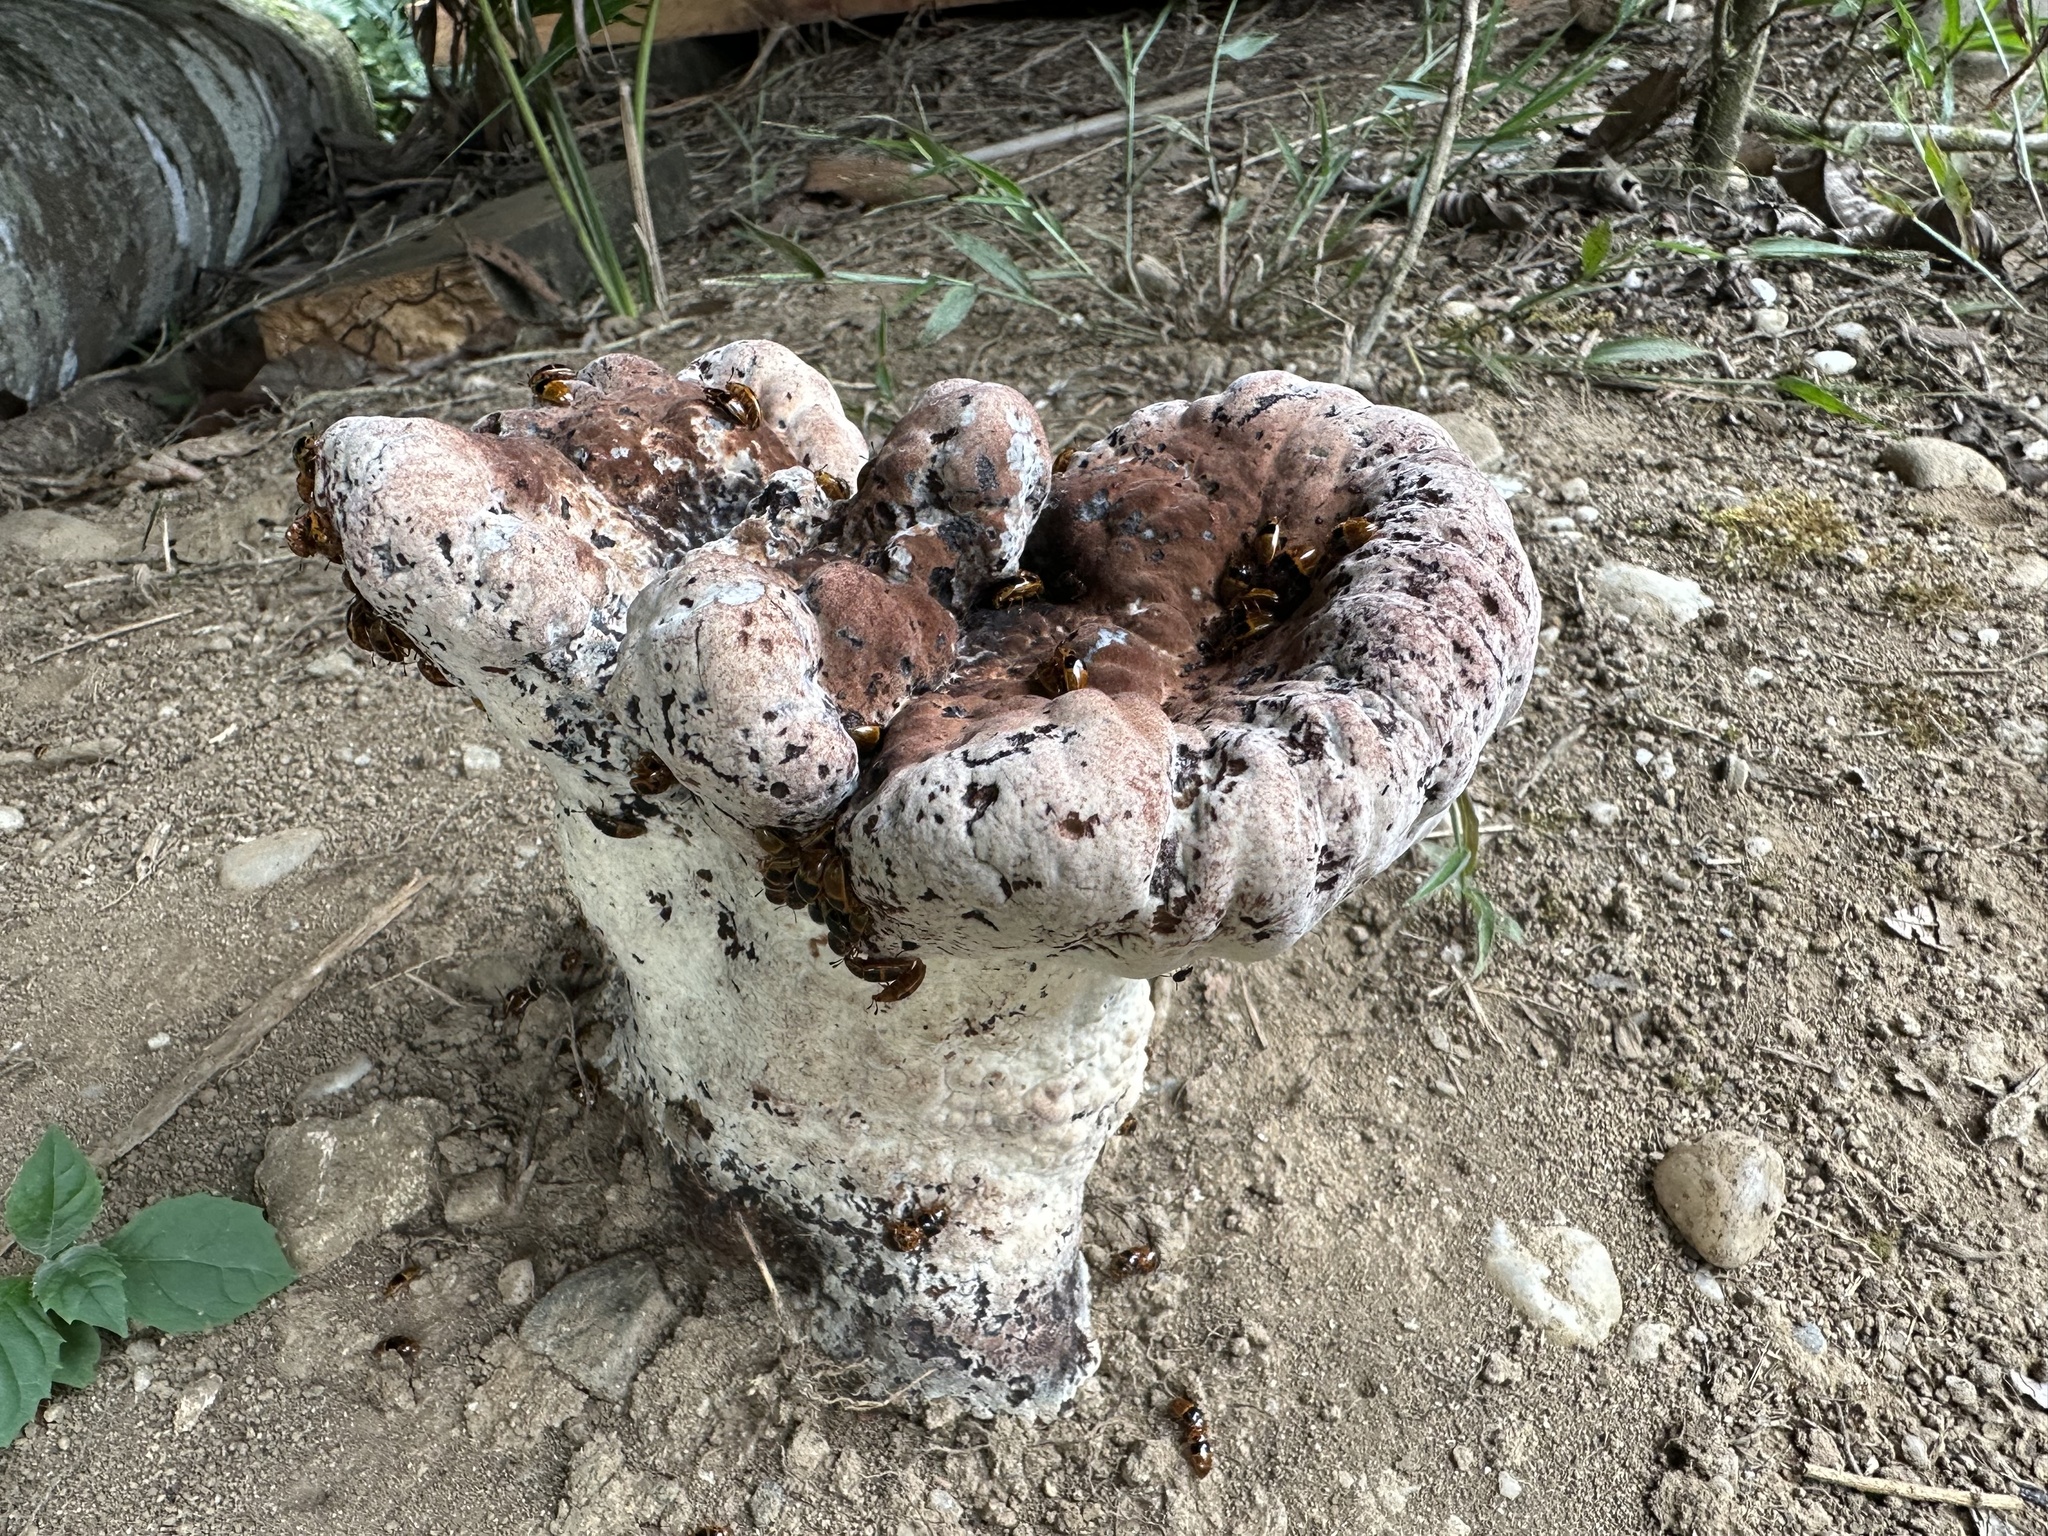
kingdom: Fungi
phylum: Basidiomycota
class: Agaricomycetes
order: Polyporales
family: Laetiporaceae
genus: Kusaghiporia
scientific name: Kusaghiporia talpae
